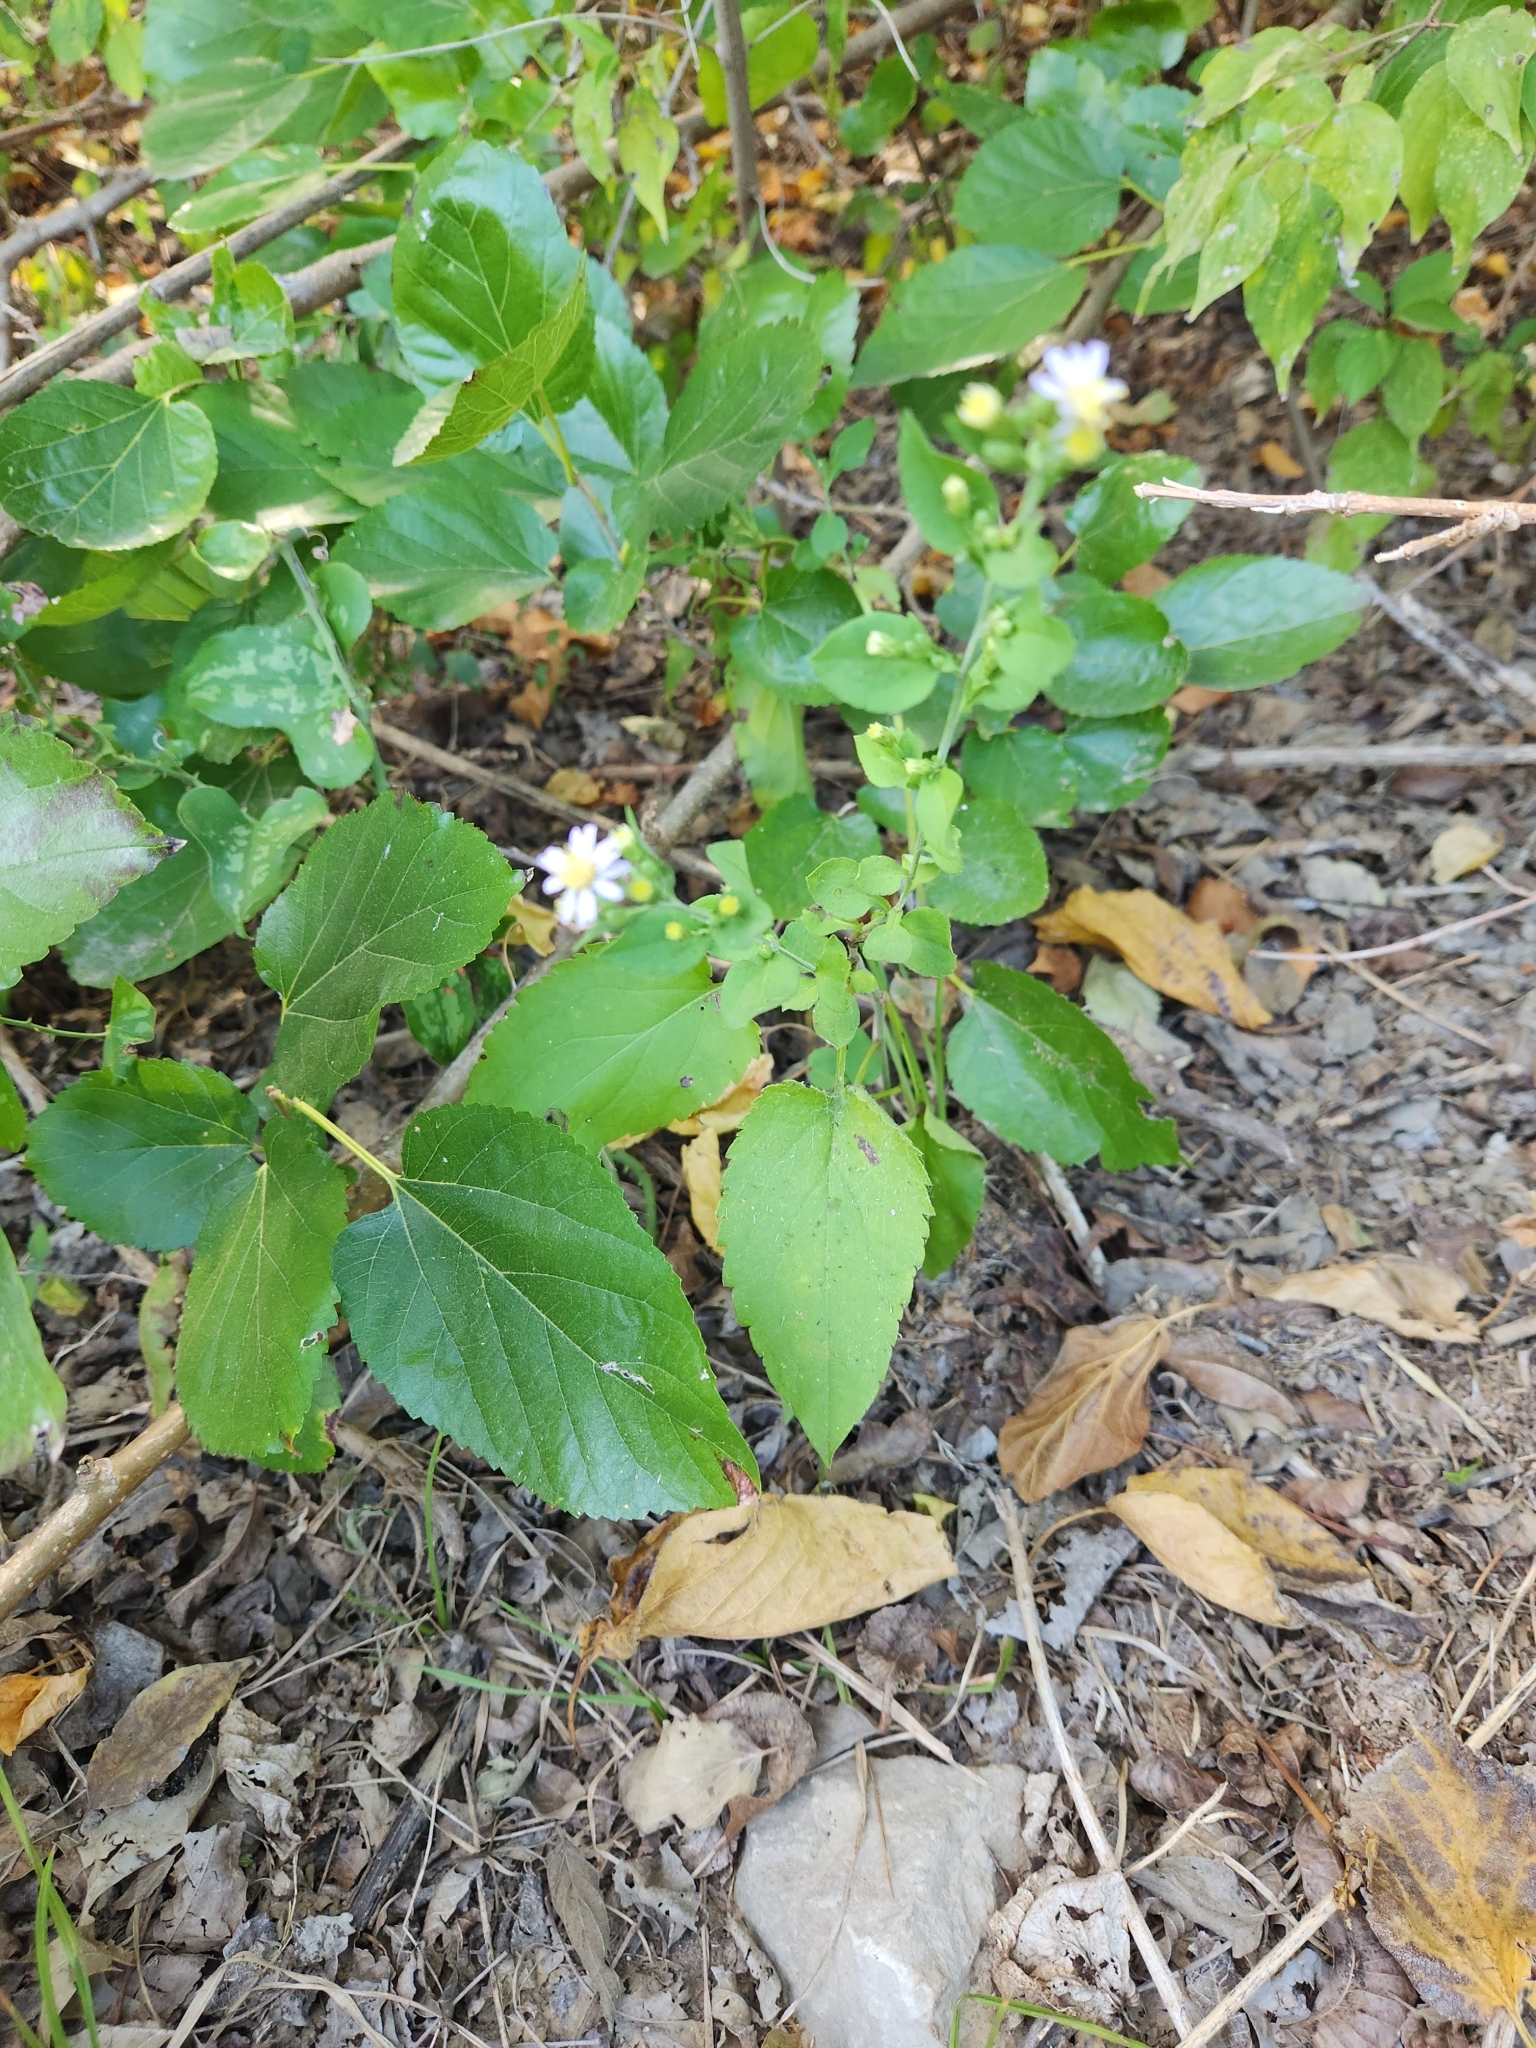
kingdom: Plantae
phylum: Tracheophyta
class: Magnoliopsida
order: Asterales
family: Asteraceae
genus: Symphyotrichum
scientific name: Symphyotrichum drummondii
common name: Drummond's aster
